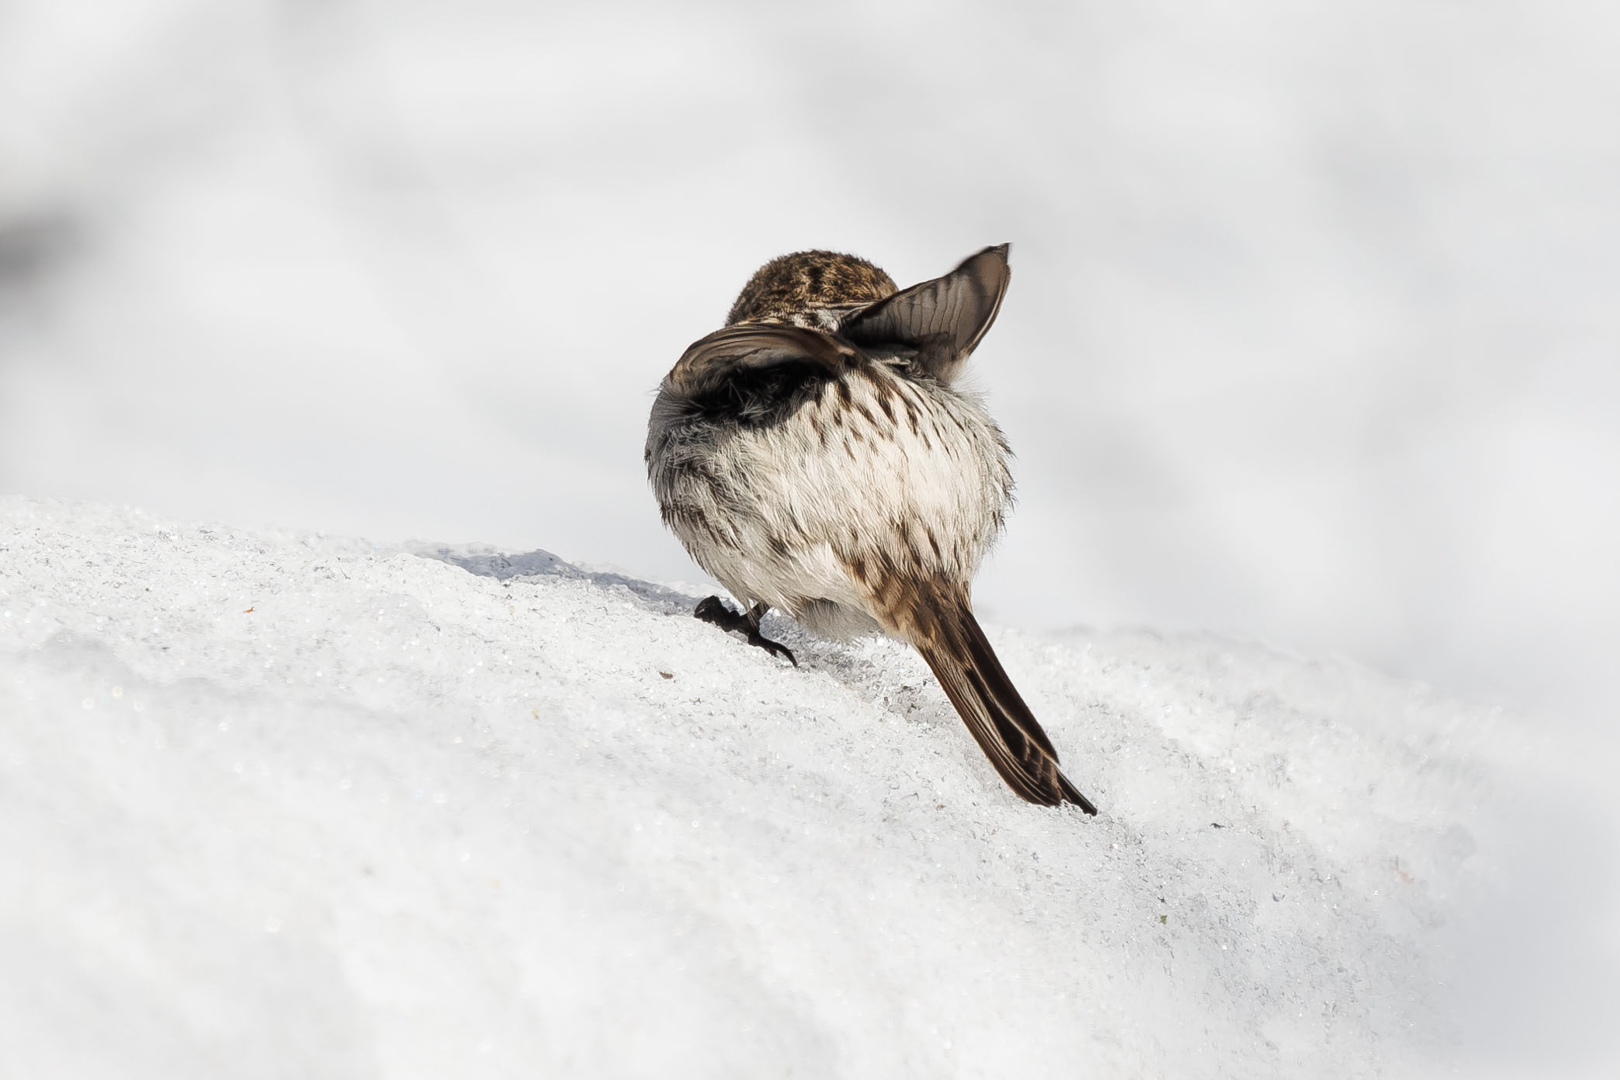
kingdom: Animalia
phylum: Chordata
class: Aves
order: Passeriformes
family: Fringillidae
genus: Acanthis
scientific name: Acanthis hornemanni
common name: Arctic redpoll
